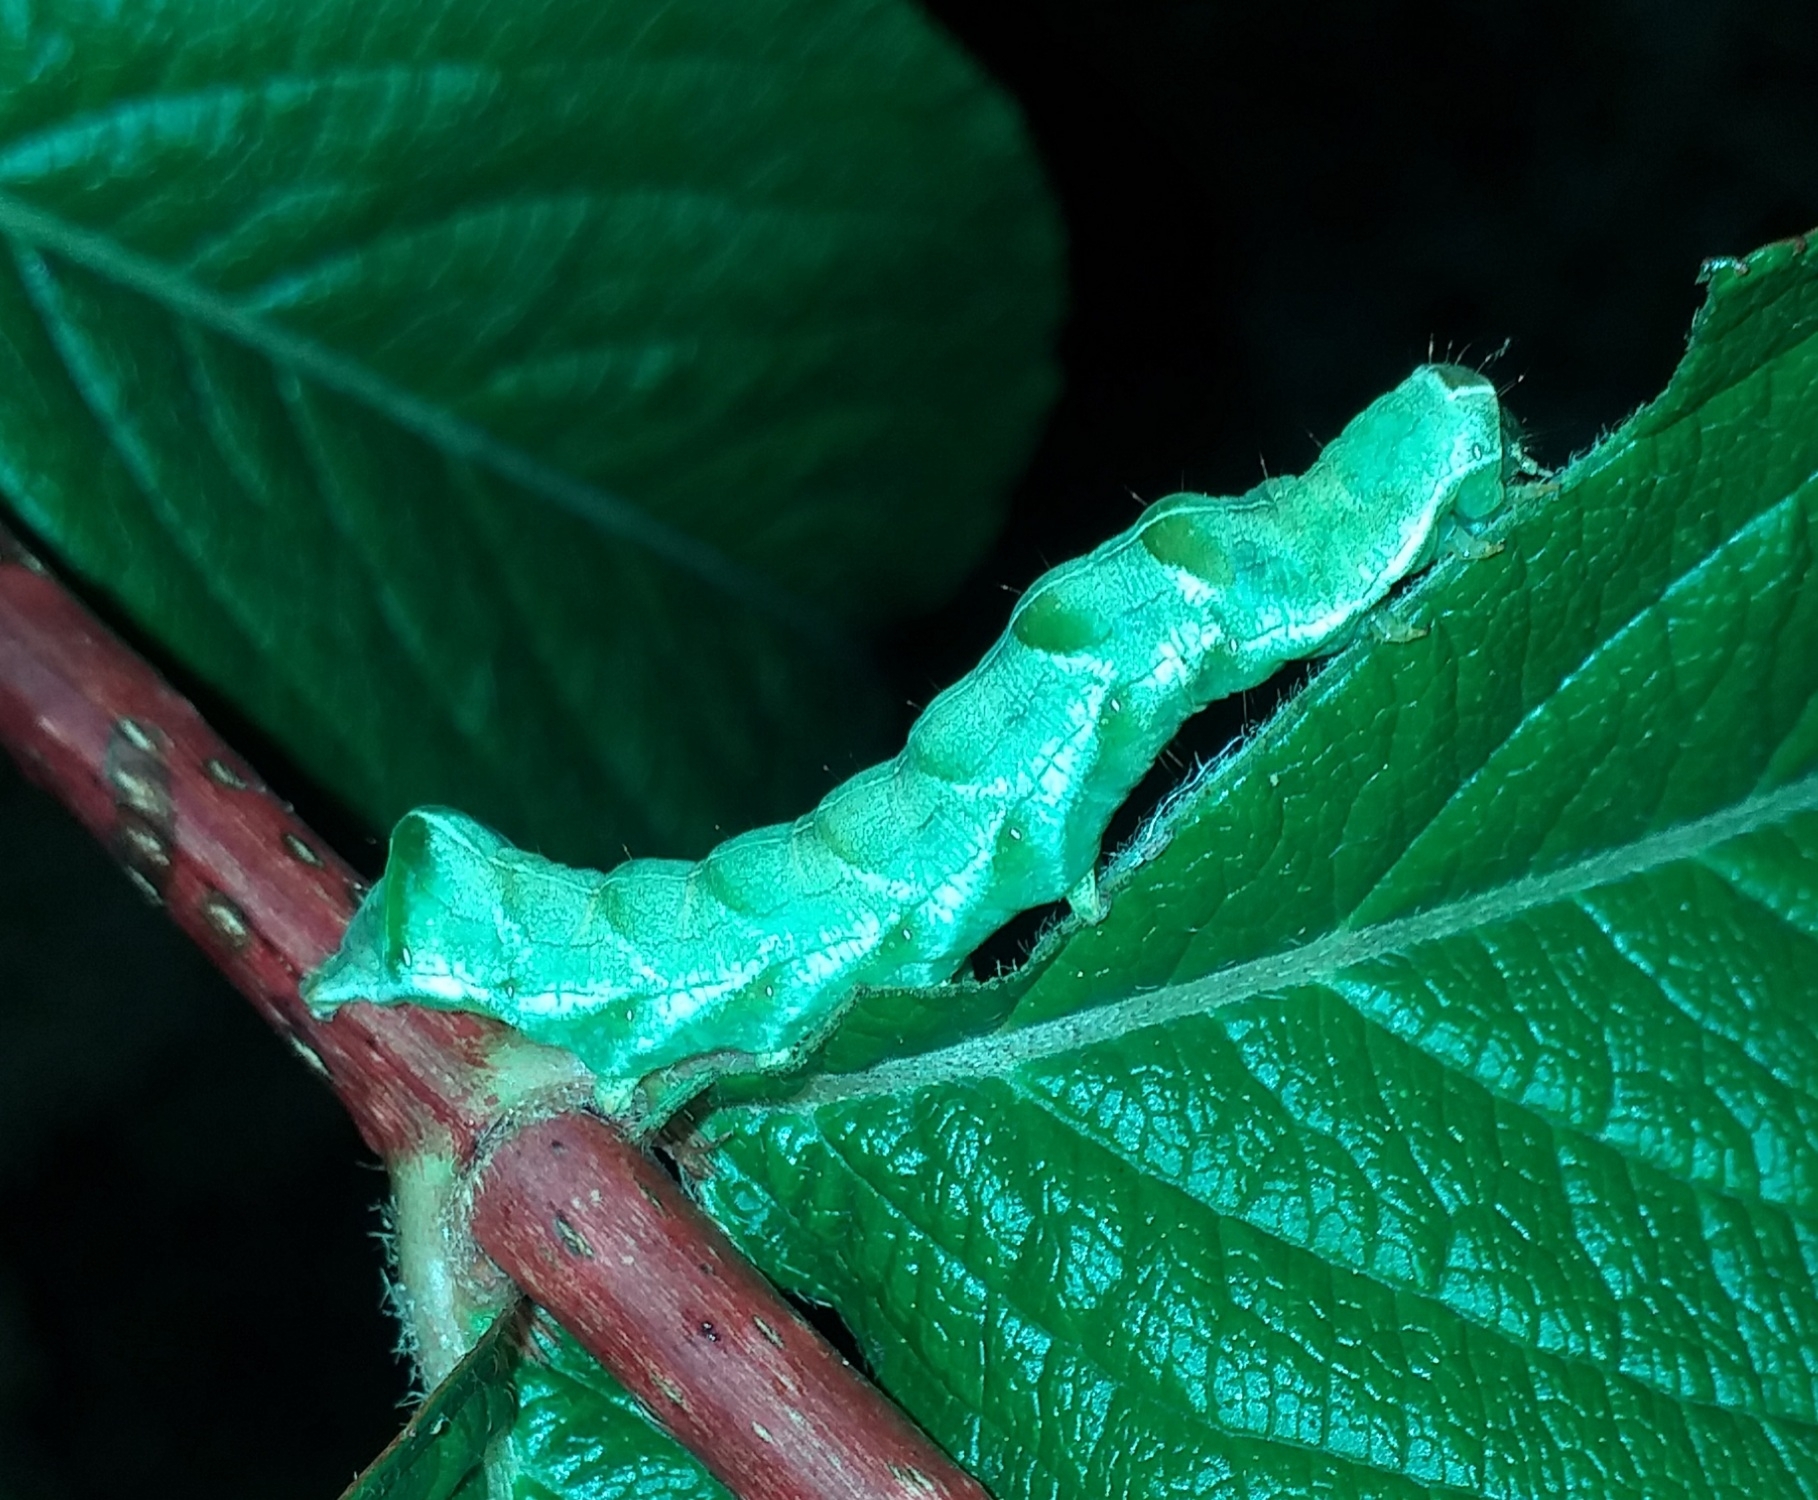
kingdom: Animalia
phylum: Arthropoda
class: Insecta
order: Lepidoptera
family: Noctuidae
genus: Abrostola
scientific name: Abrostola tripartita
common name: Spectacle
